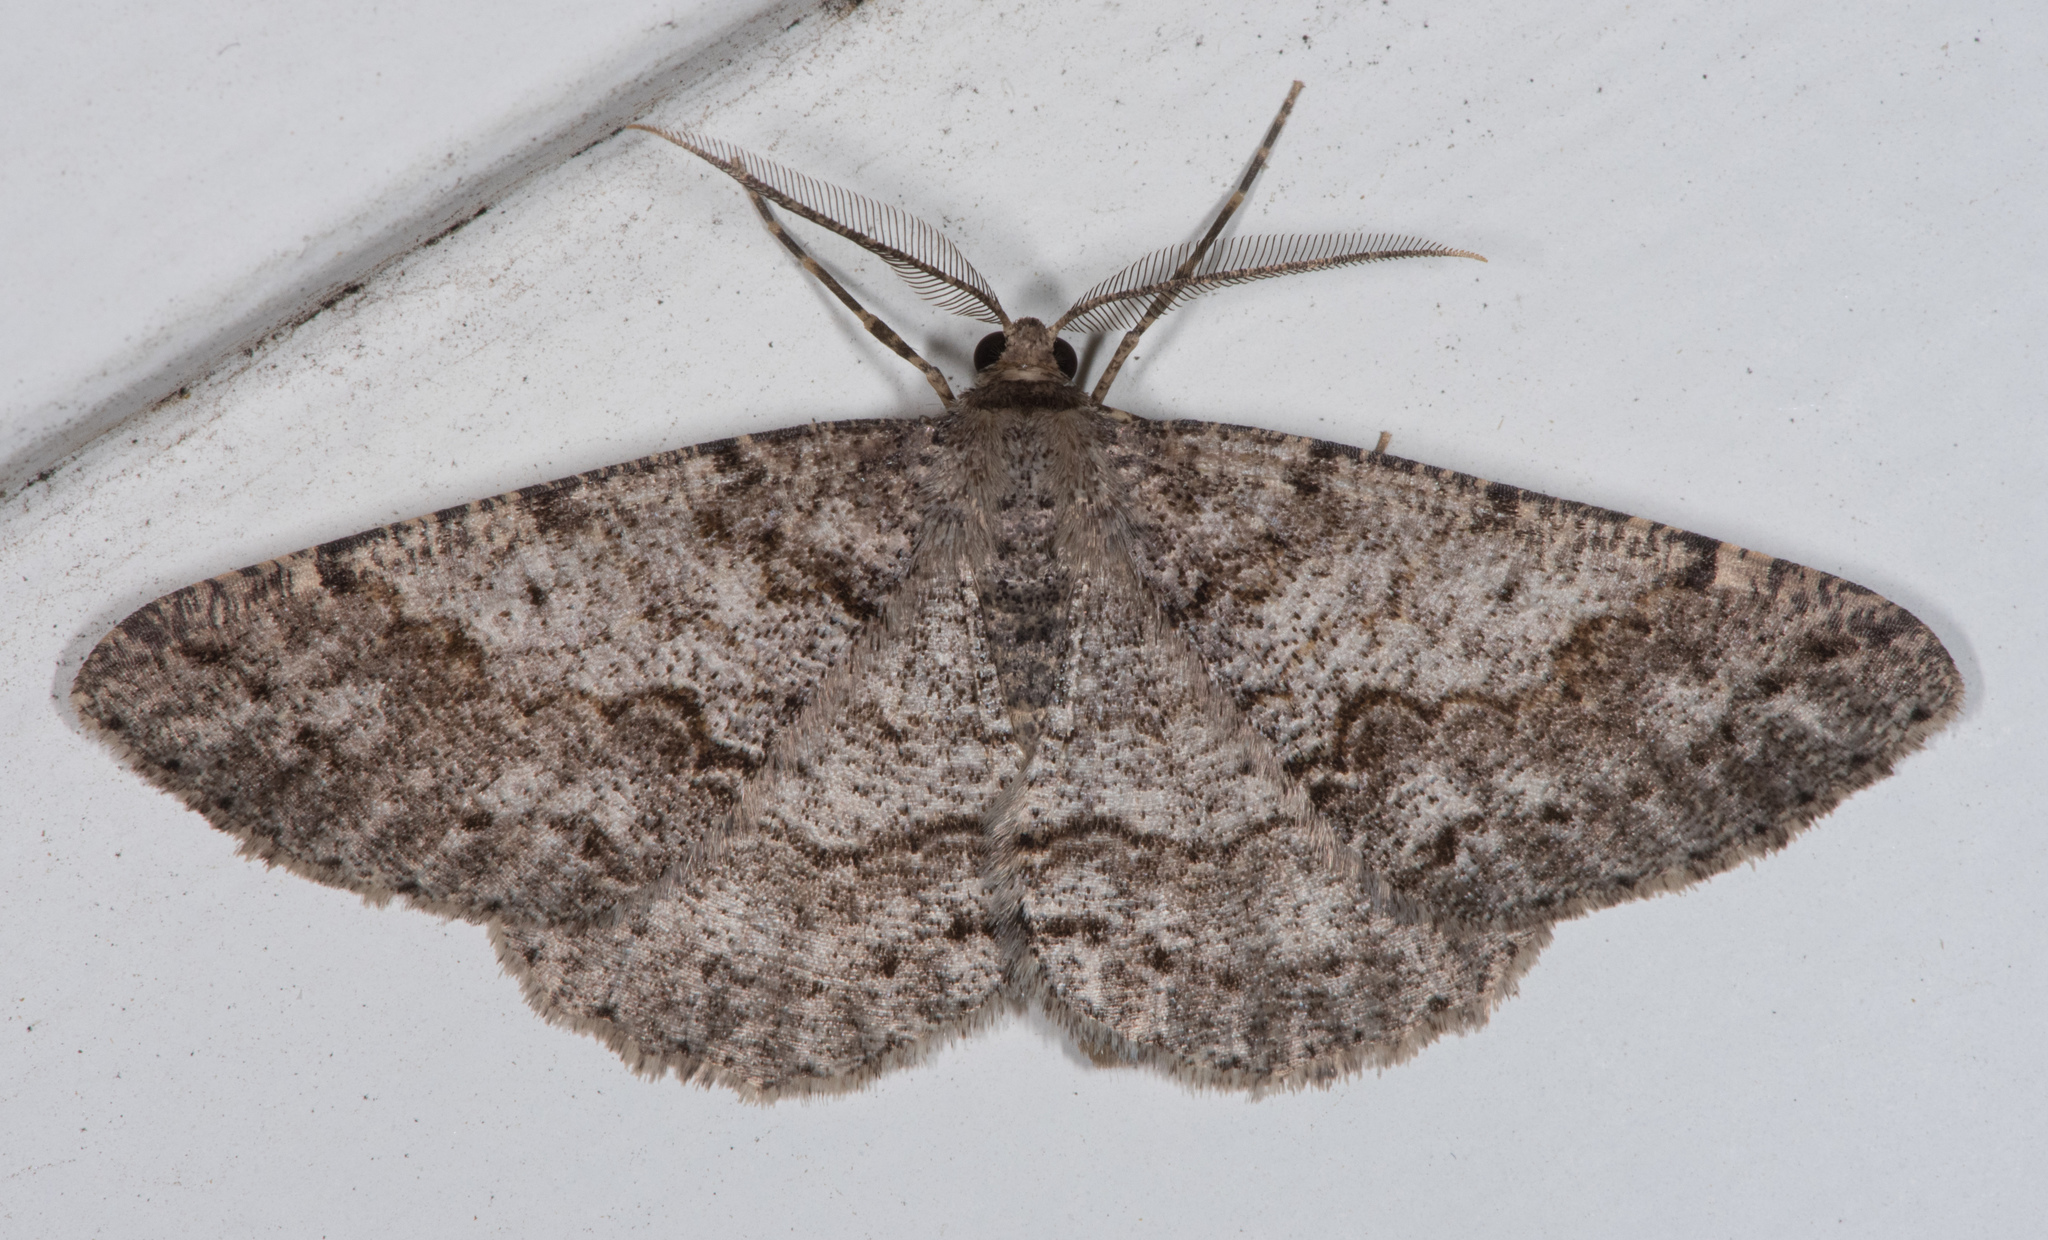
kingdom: Animalia
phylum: Arthropoda
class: Insecta
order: Lepidoptera
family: Geometridae
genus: Melanolophia
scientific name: Melanolophia imitata
